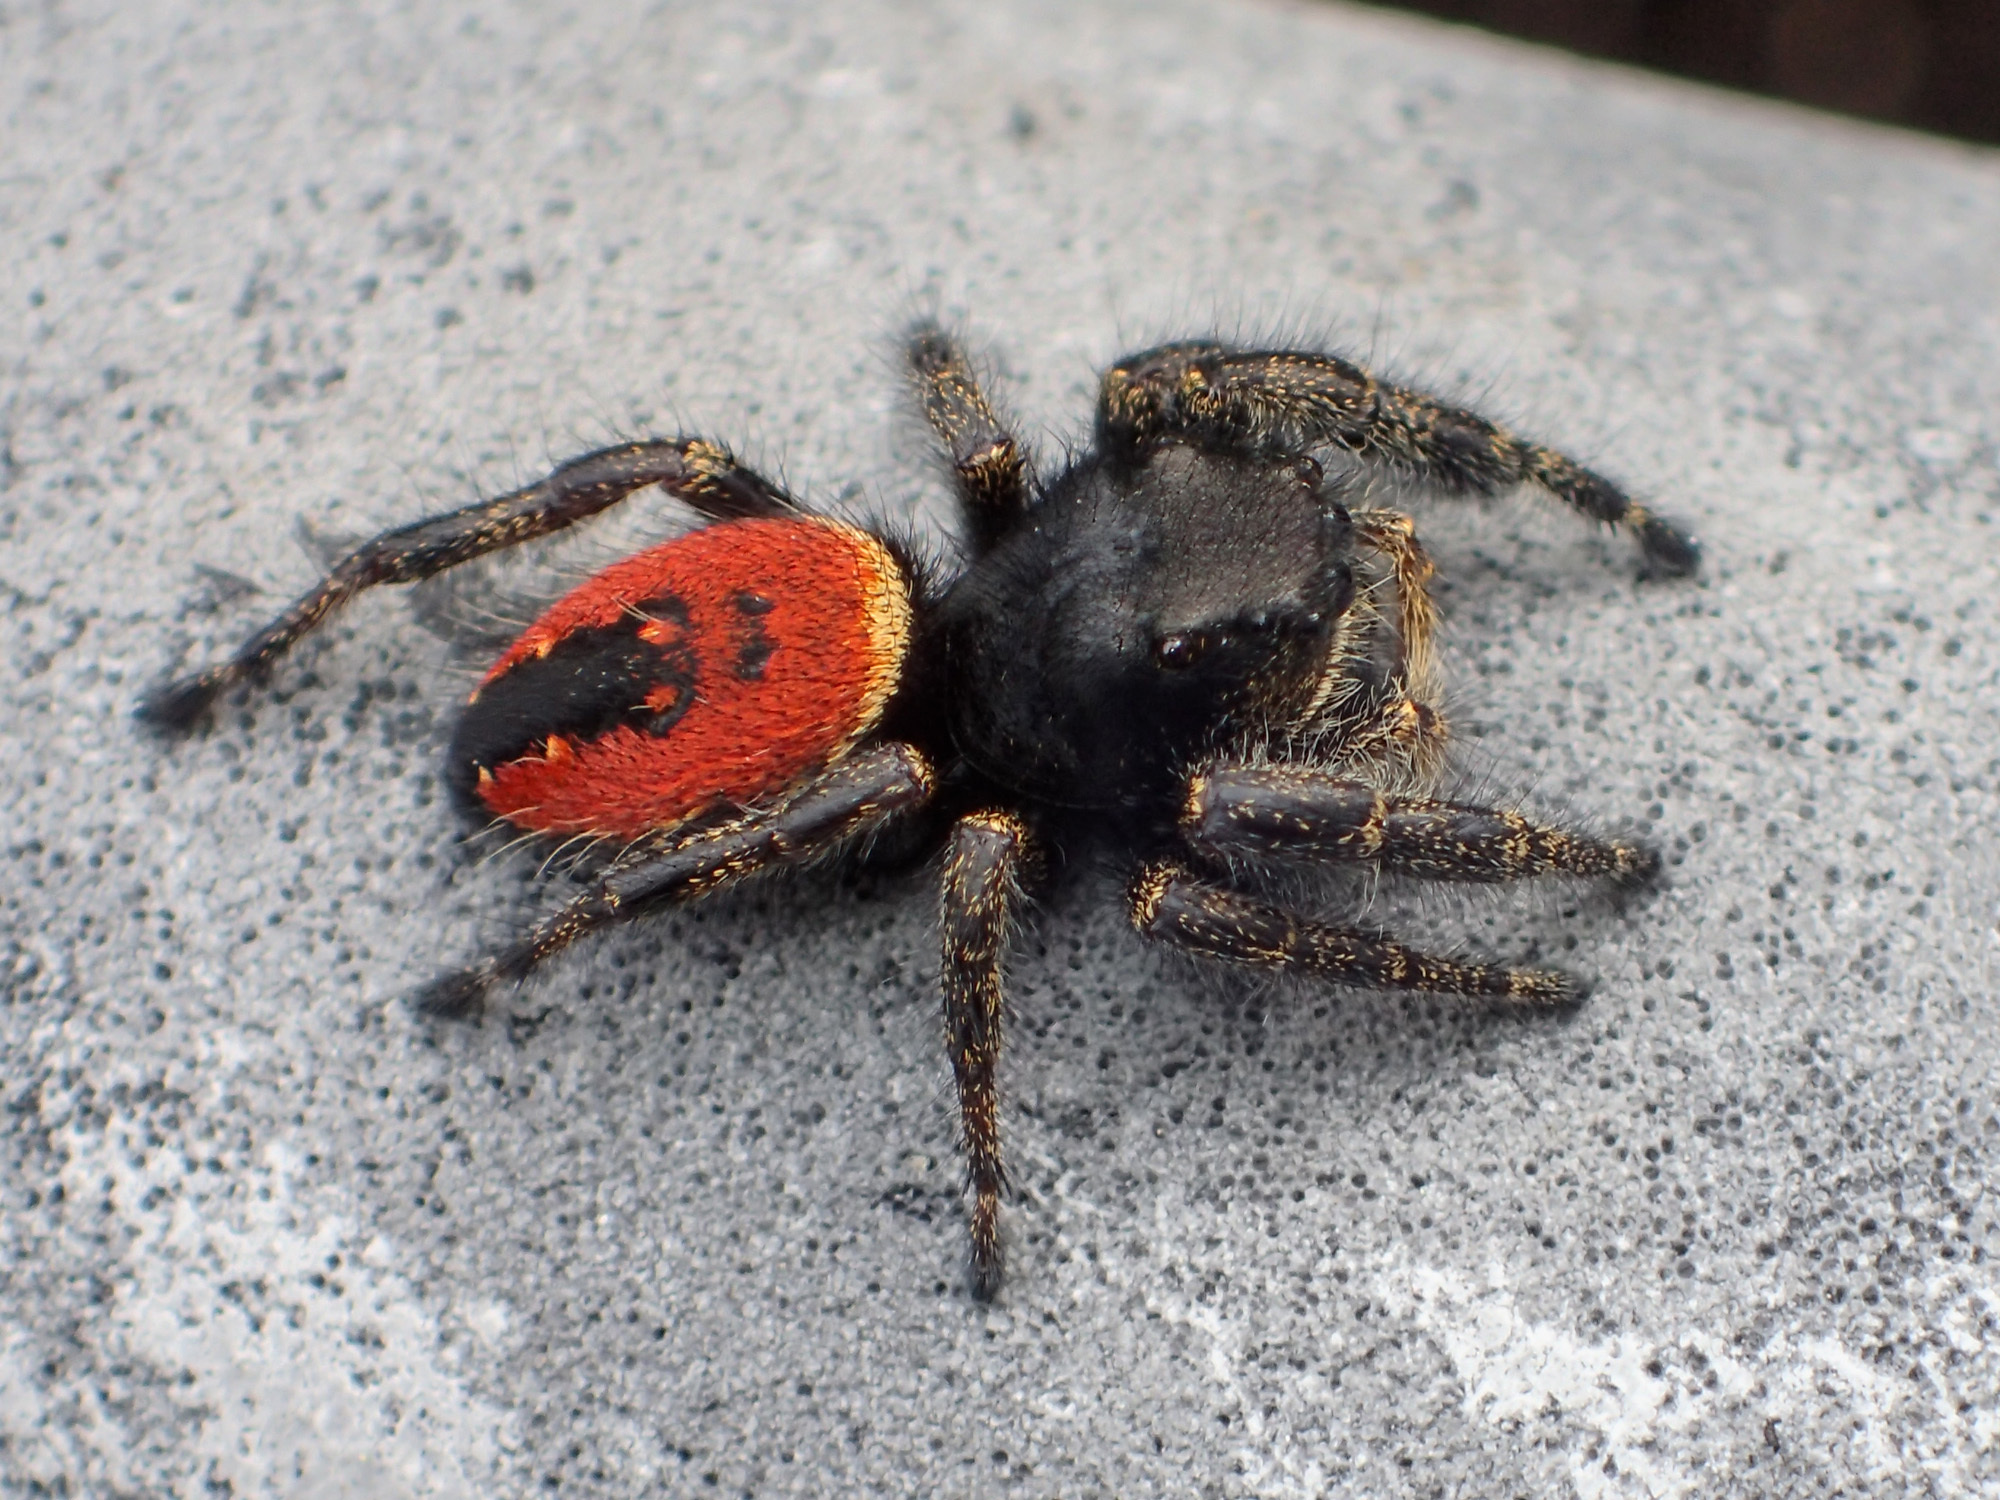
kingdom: Animalia
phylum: Arthropoda
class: Arachnida
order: Araneae
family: Salticidae
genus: Phidippus
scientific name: Phidippus johnsoni
